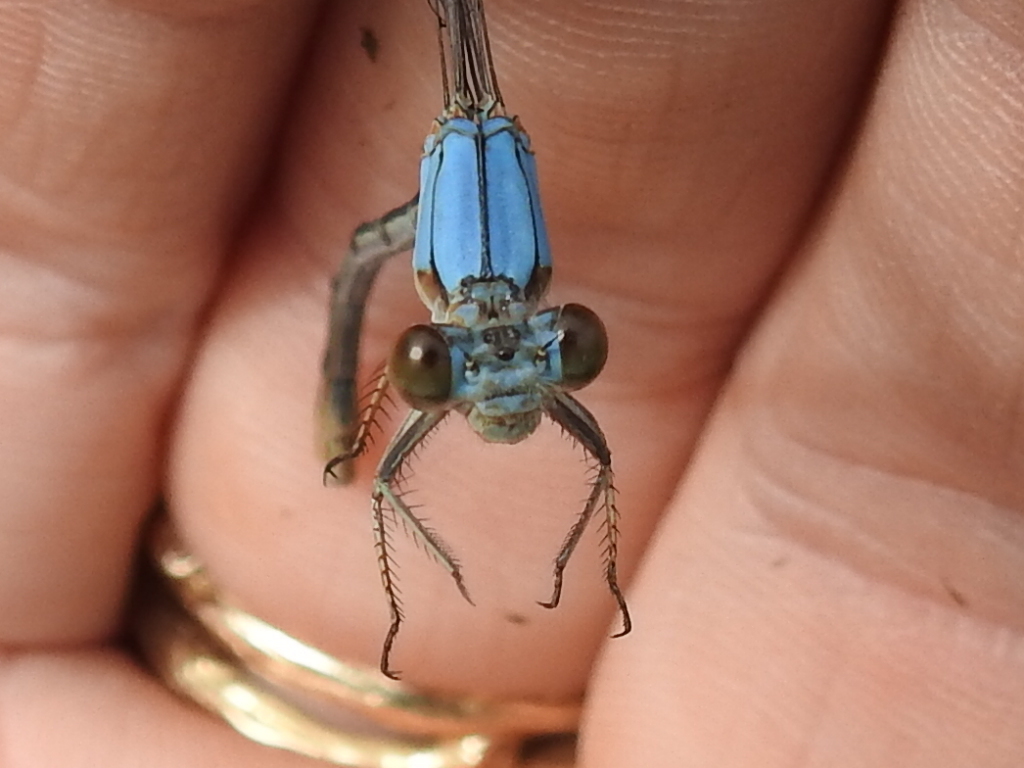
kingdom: Animalia
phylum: Arthropoda
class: Insecta
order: Odonata
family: Coenagrionidae
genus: Argia
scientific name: Argia moesta
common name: Powdered dancer
